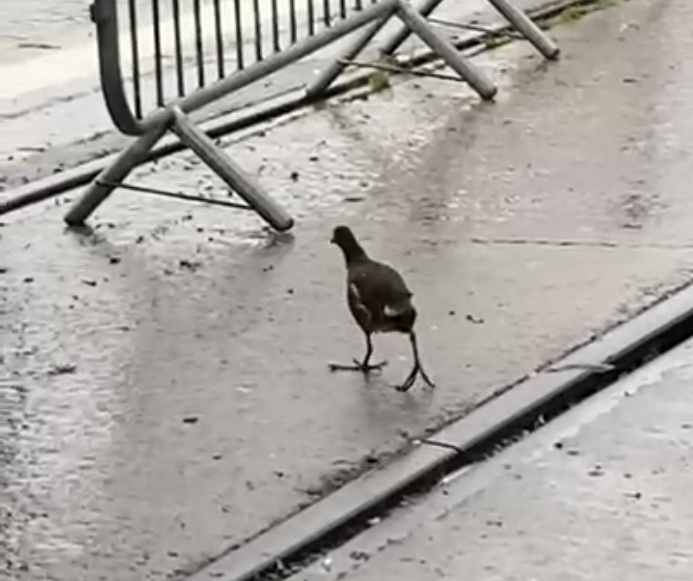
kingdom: Animalia
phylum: Chordata
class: Aves
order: Gruiformes
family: Rallidae
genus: Gallinula
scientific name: Gallinula chloropus
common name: Common moorhen
